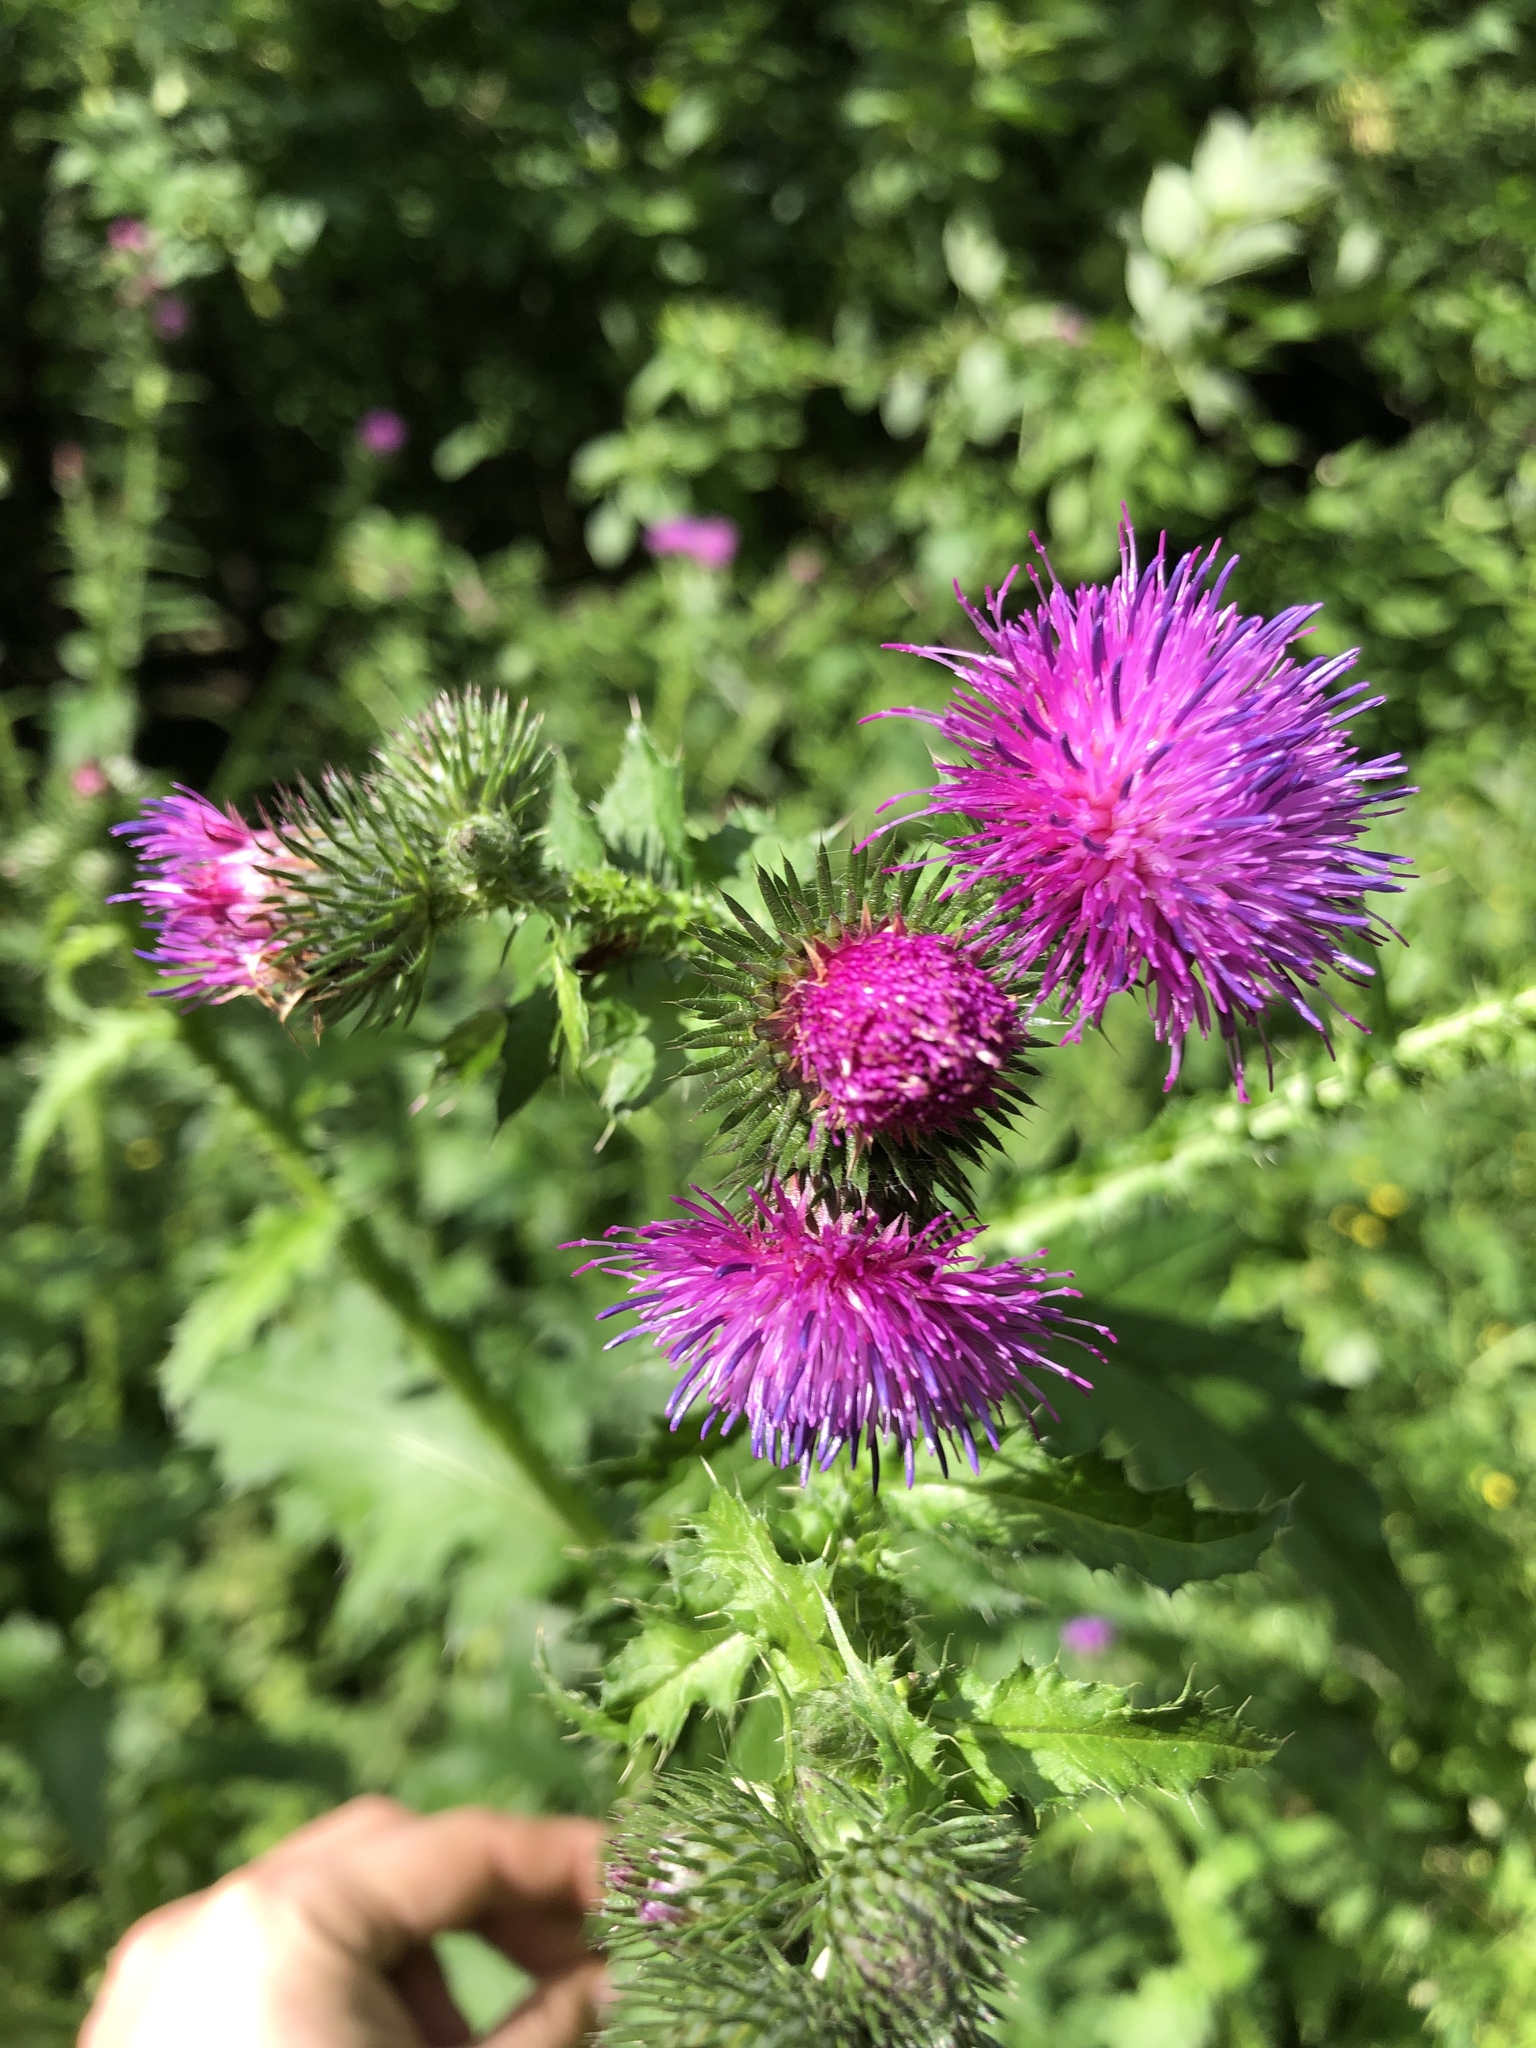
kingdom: Plantae
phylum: Tracheophyta
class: Magnoliopsida
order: Asterales
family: Asteraceae
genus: Carduus
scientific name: Carduus crispus
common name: Welted thistle
